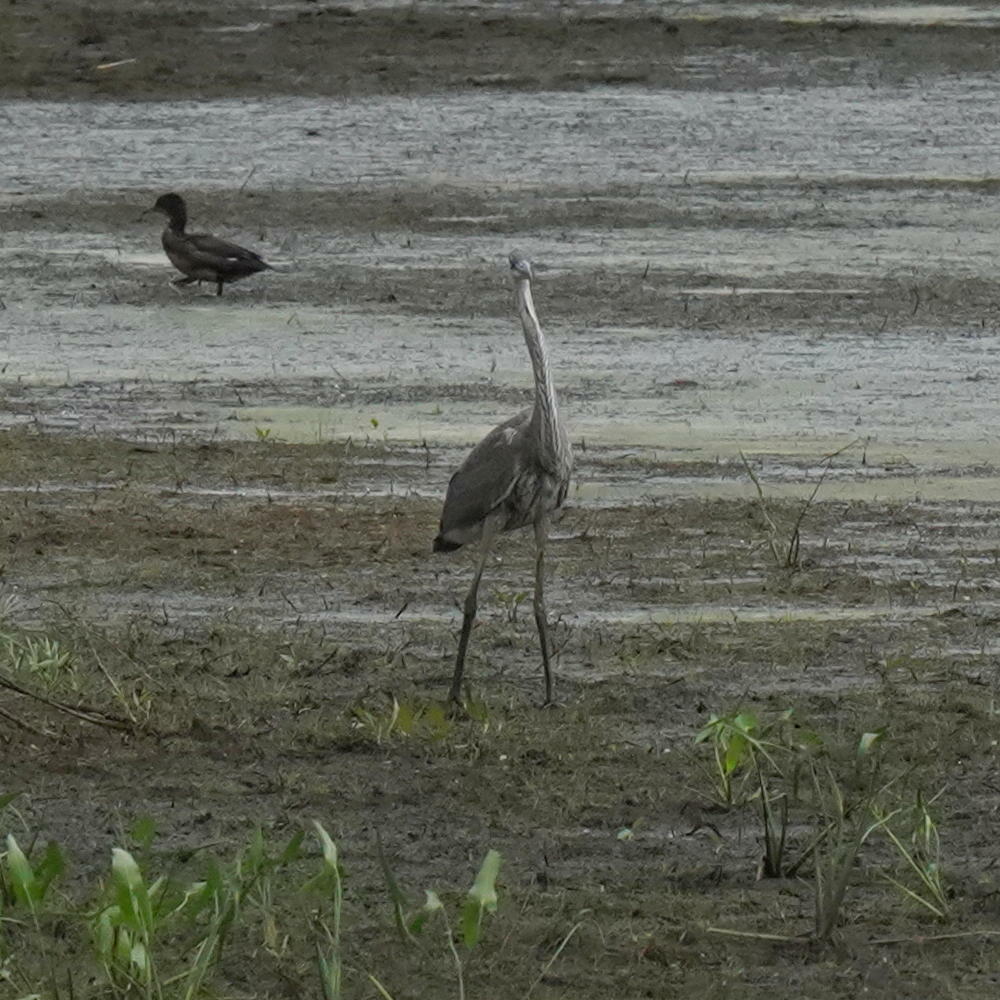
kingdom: Animalia
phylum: Chordata
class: Aves
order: Pelecaniformes
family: Ardeidae
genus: Ardea
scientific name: Ardea herodias
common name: Great blue heron
